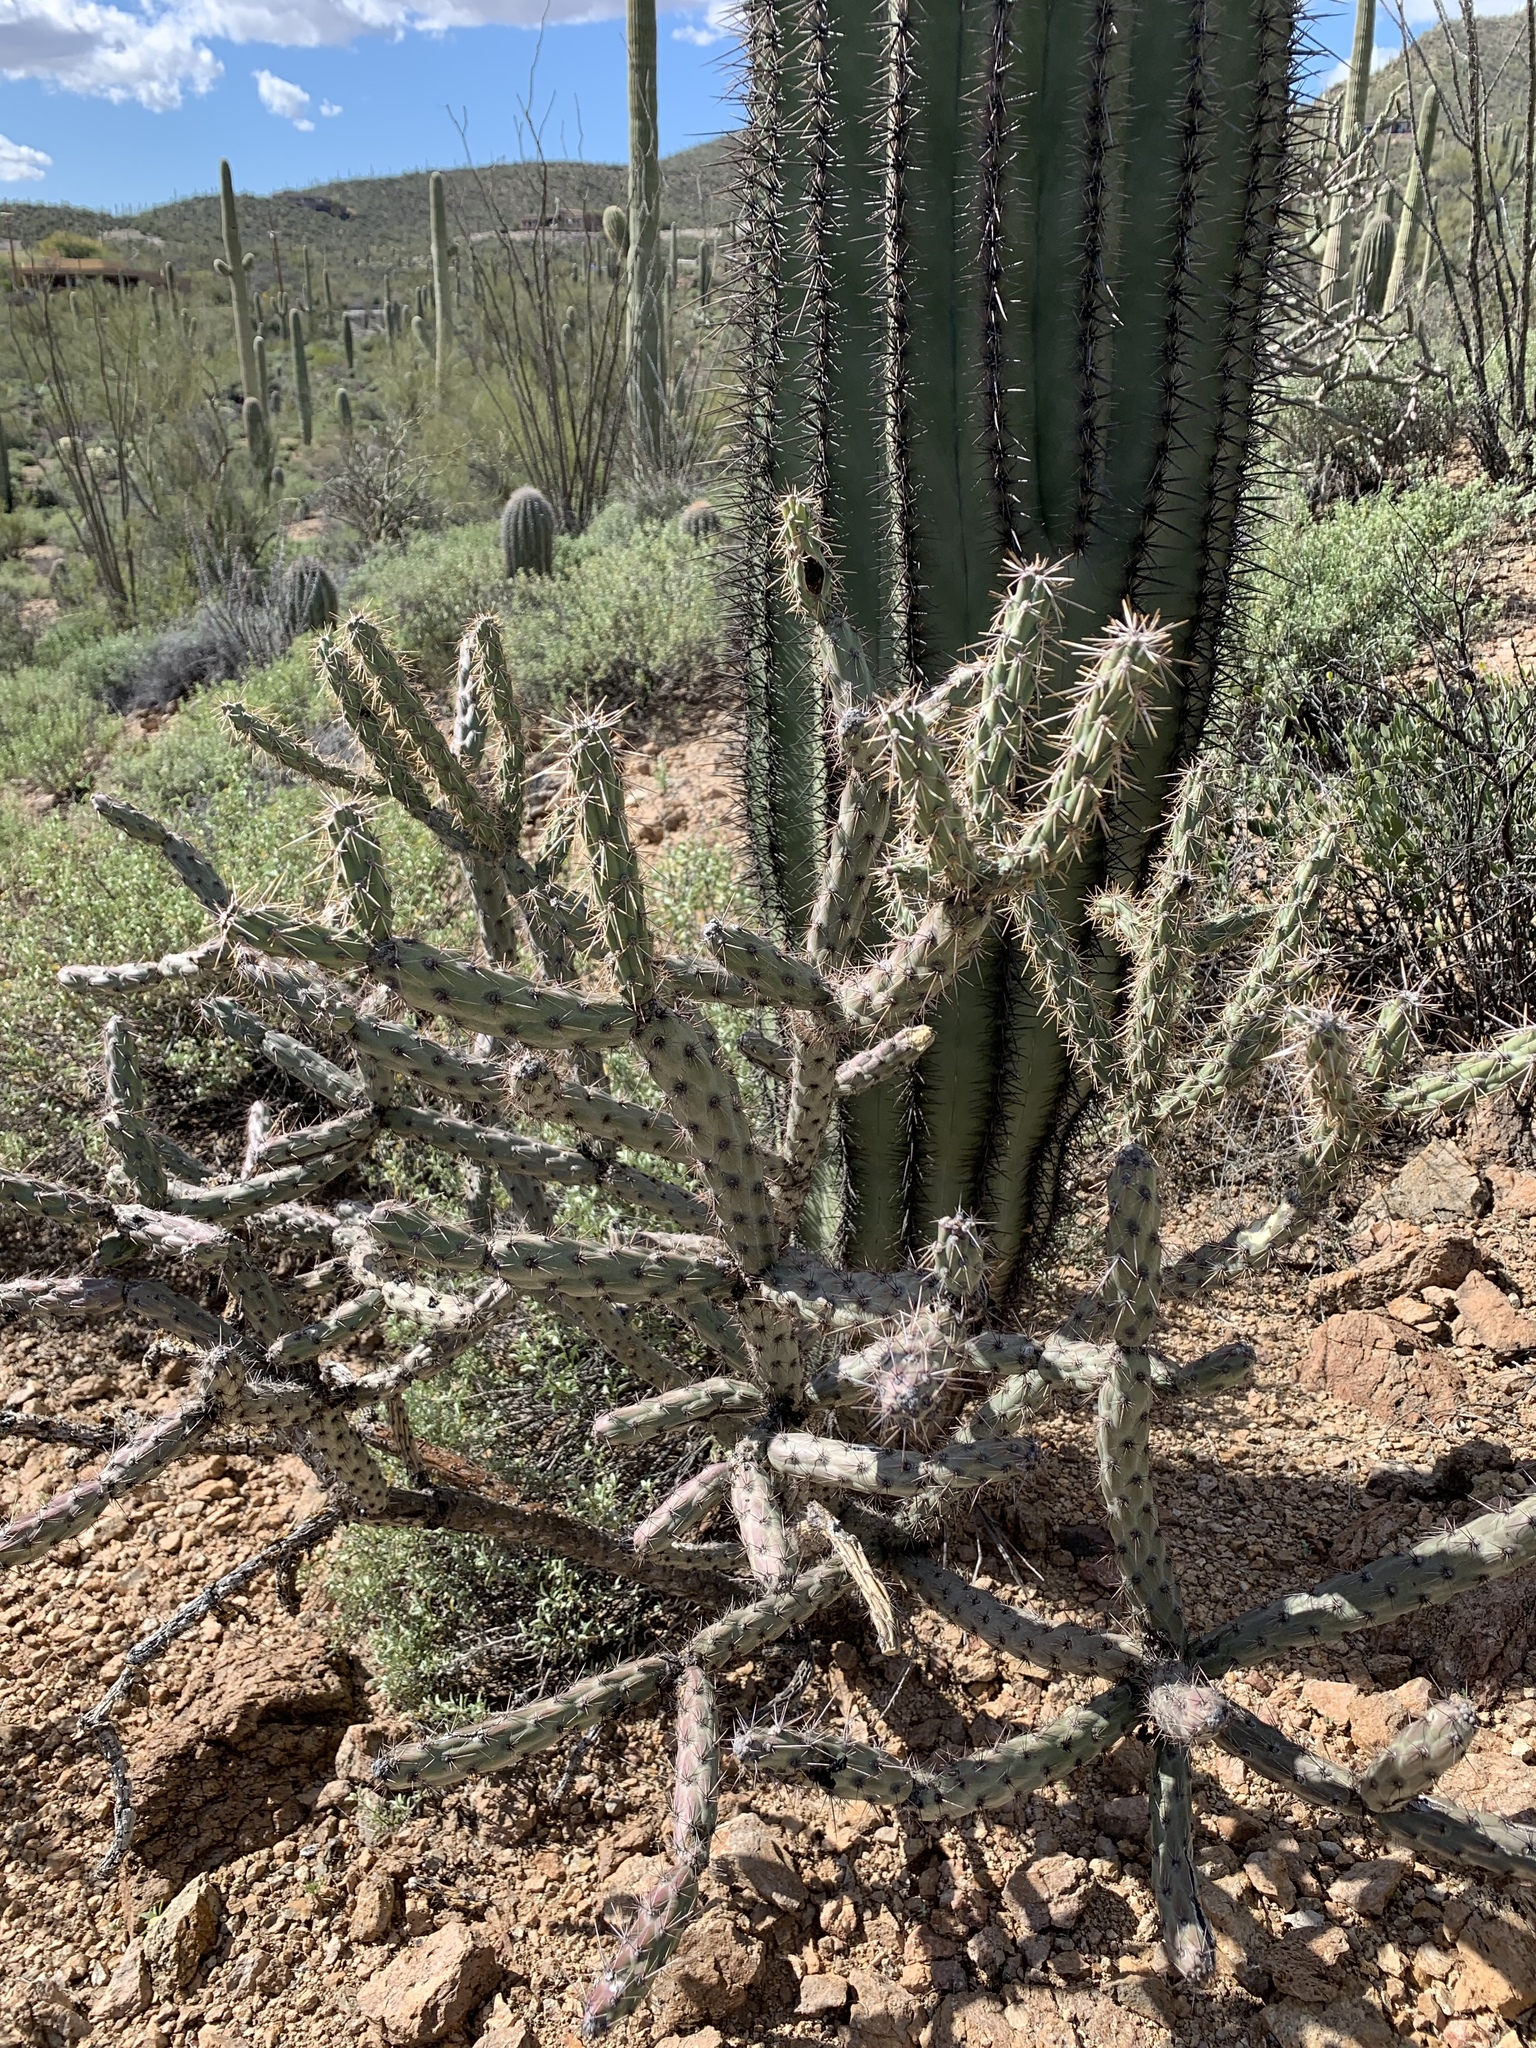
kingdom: Plantae
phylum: Tracheophyta
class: Magnoliopsida
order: Caryophyllales
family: Cactaceae
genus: Cylindropuntia
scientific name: Cylindropuntia acanthocarpa
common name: Buckhorn cholla
